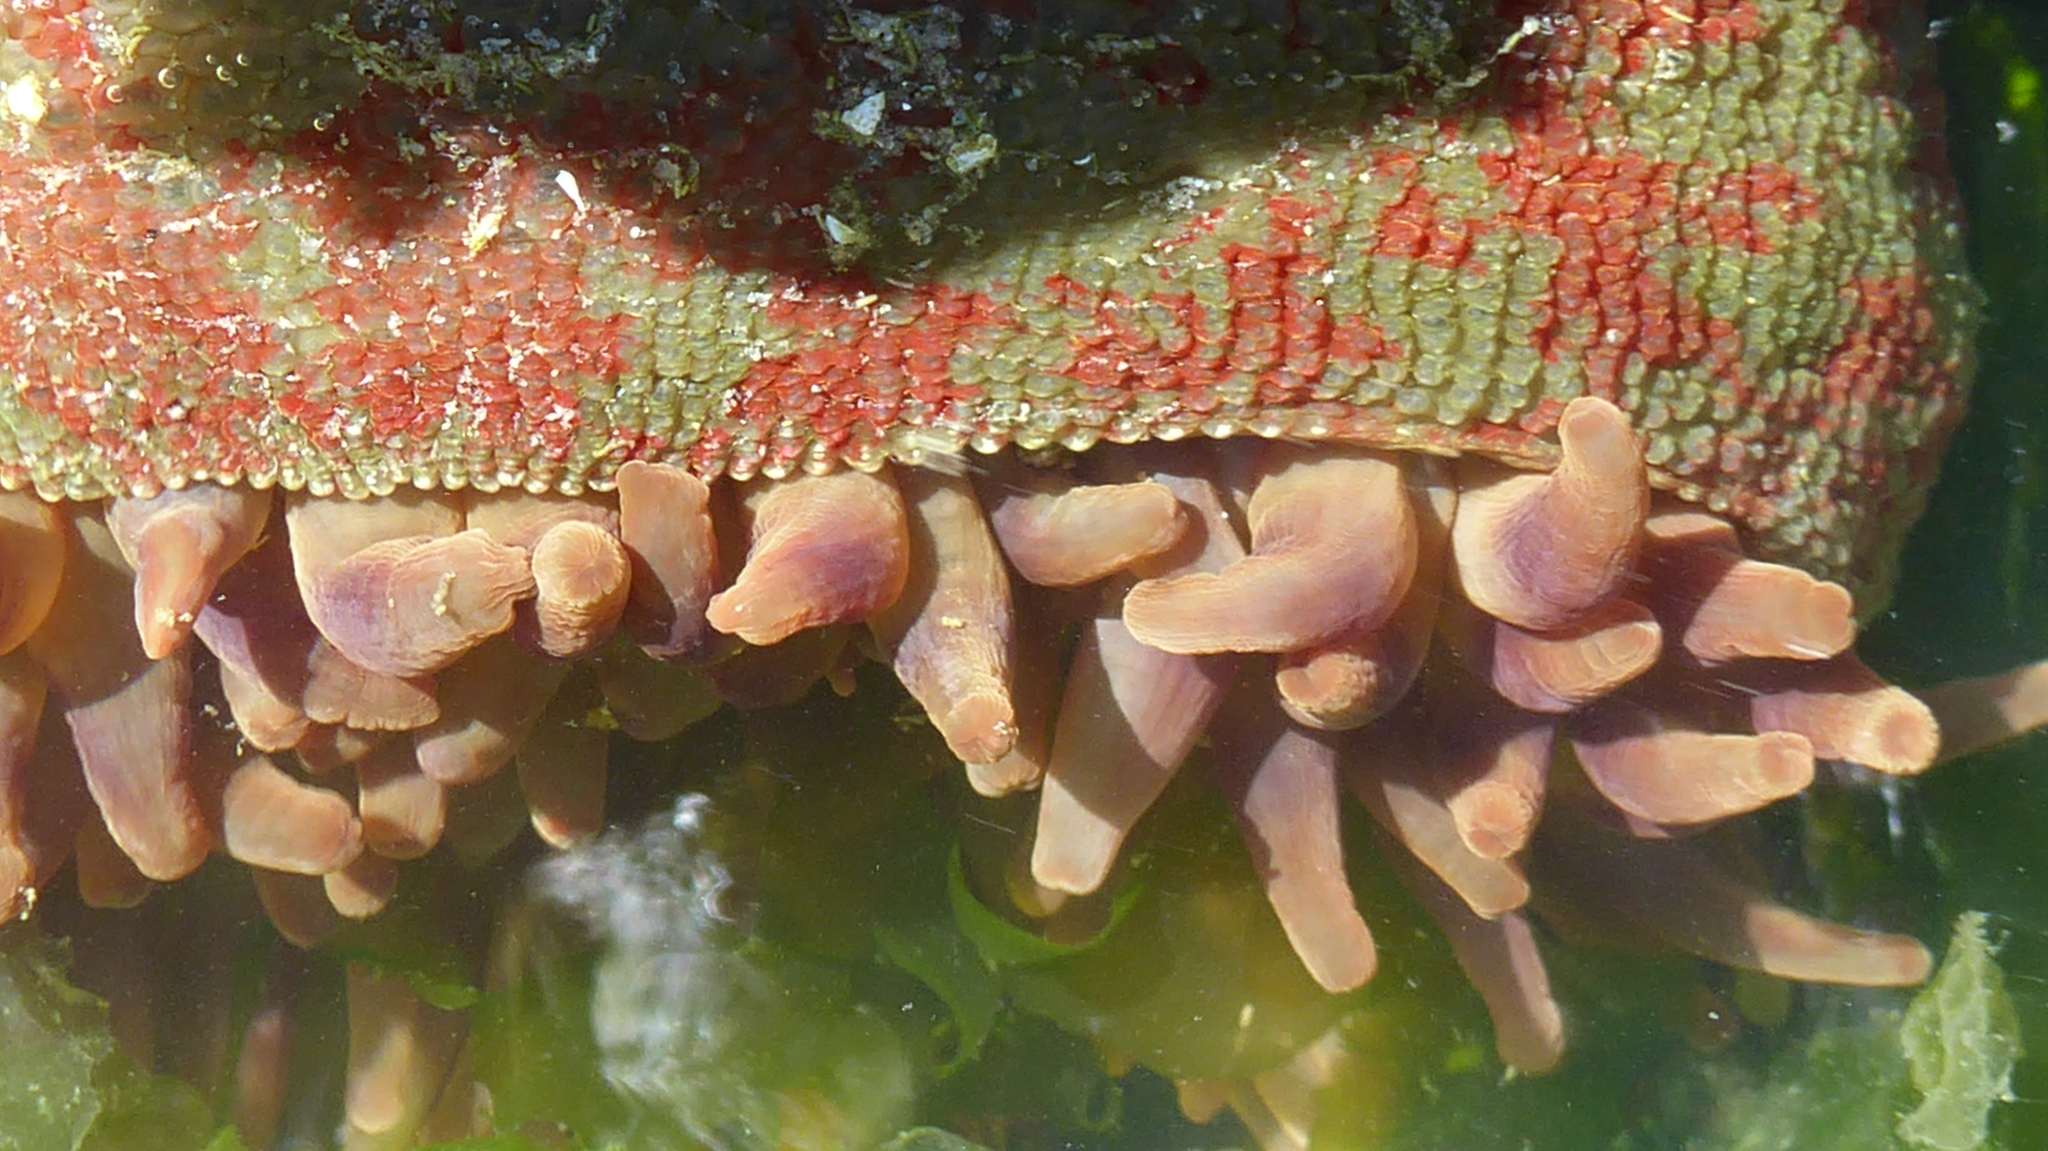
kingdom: Animalia
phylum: Cnidaria
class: Anthozoa
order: Actiniaria
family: Actiniidae
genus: Urticina
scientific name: Urticina grebelnyi
